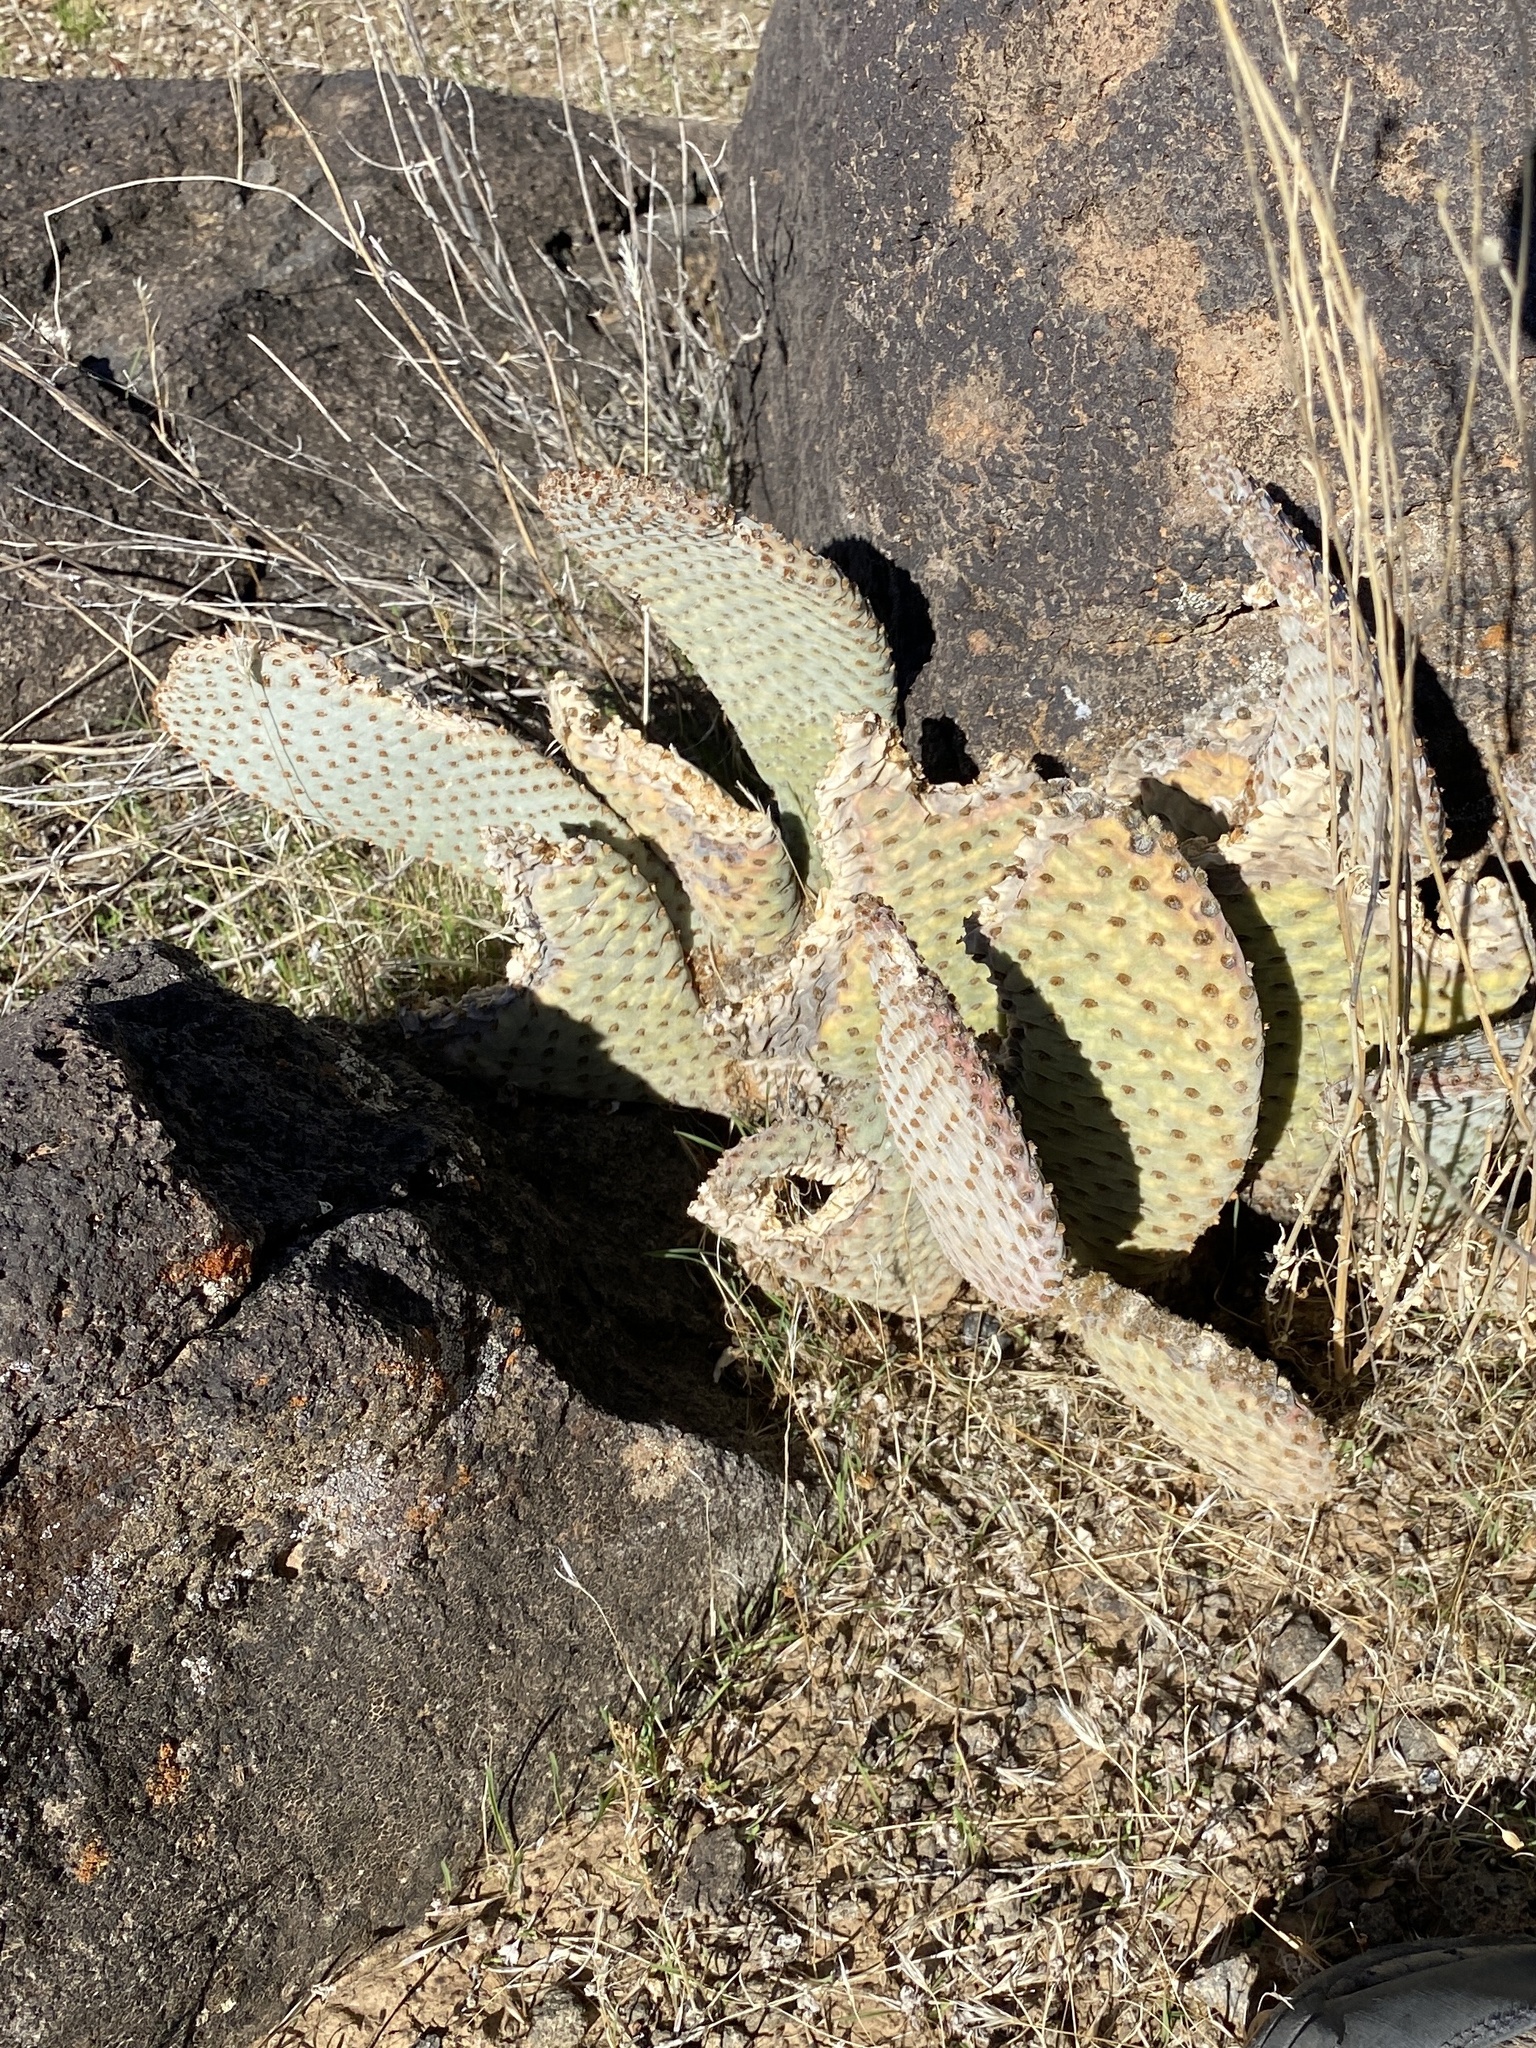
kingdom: Plantae
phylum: Tracheophyta
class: Magnoliopsida
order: Caryophyllales
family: Cactaceae
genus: Opuntia
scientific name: Opuntia basilaris
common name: Beavertail prickly-pear
